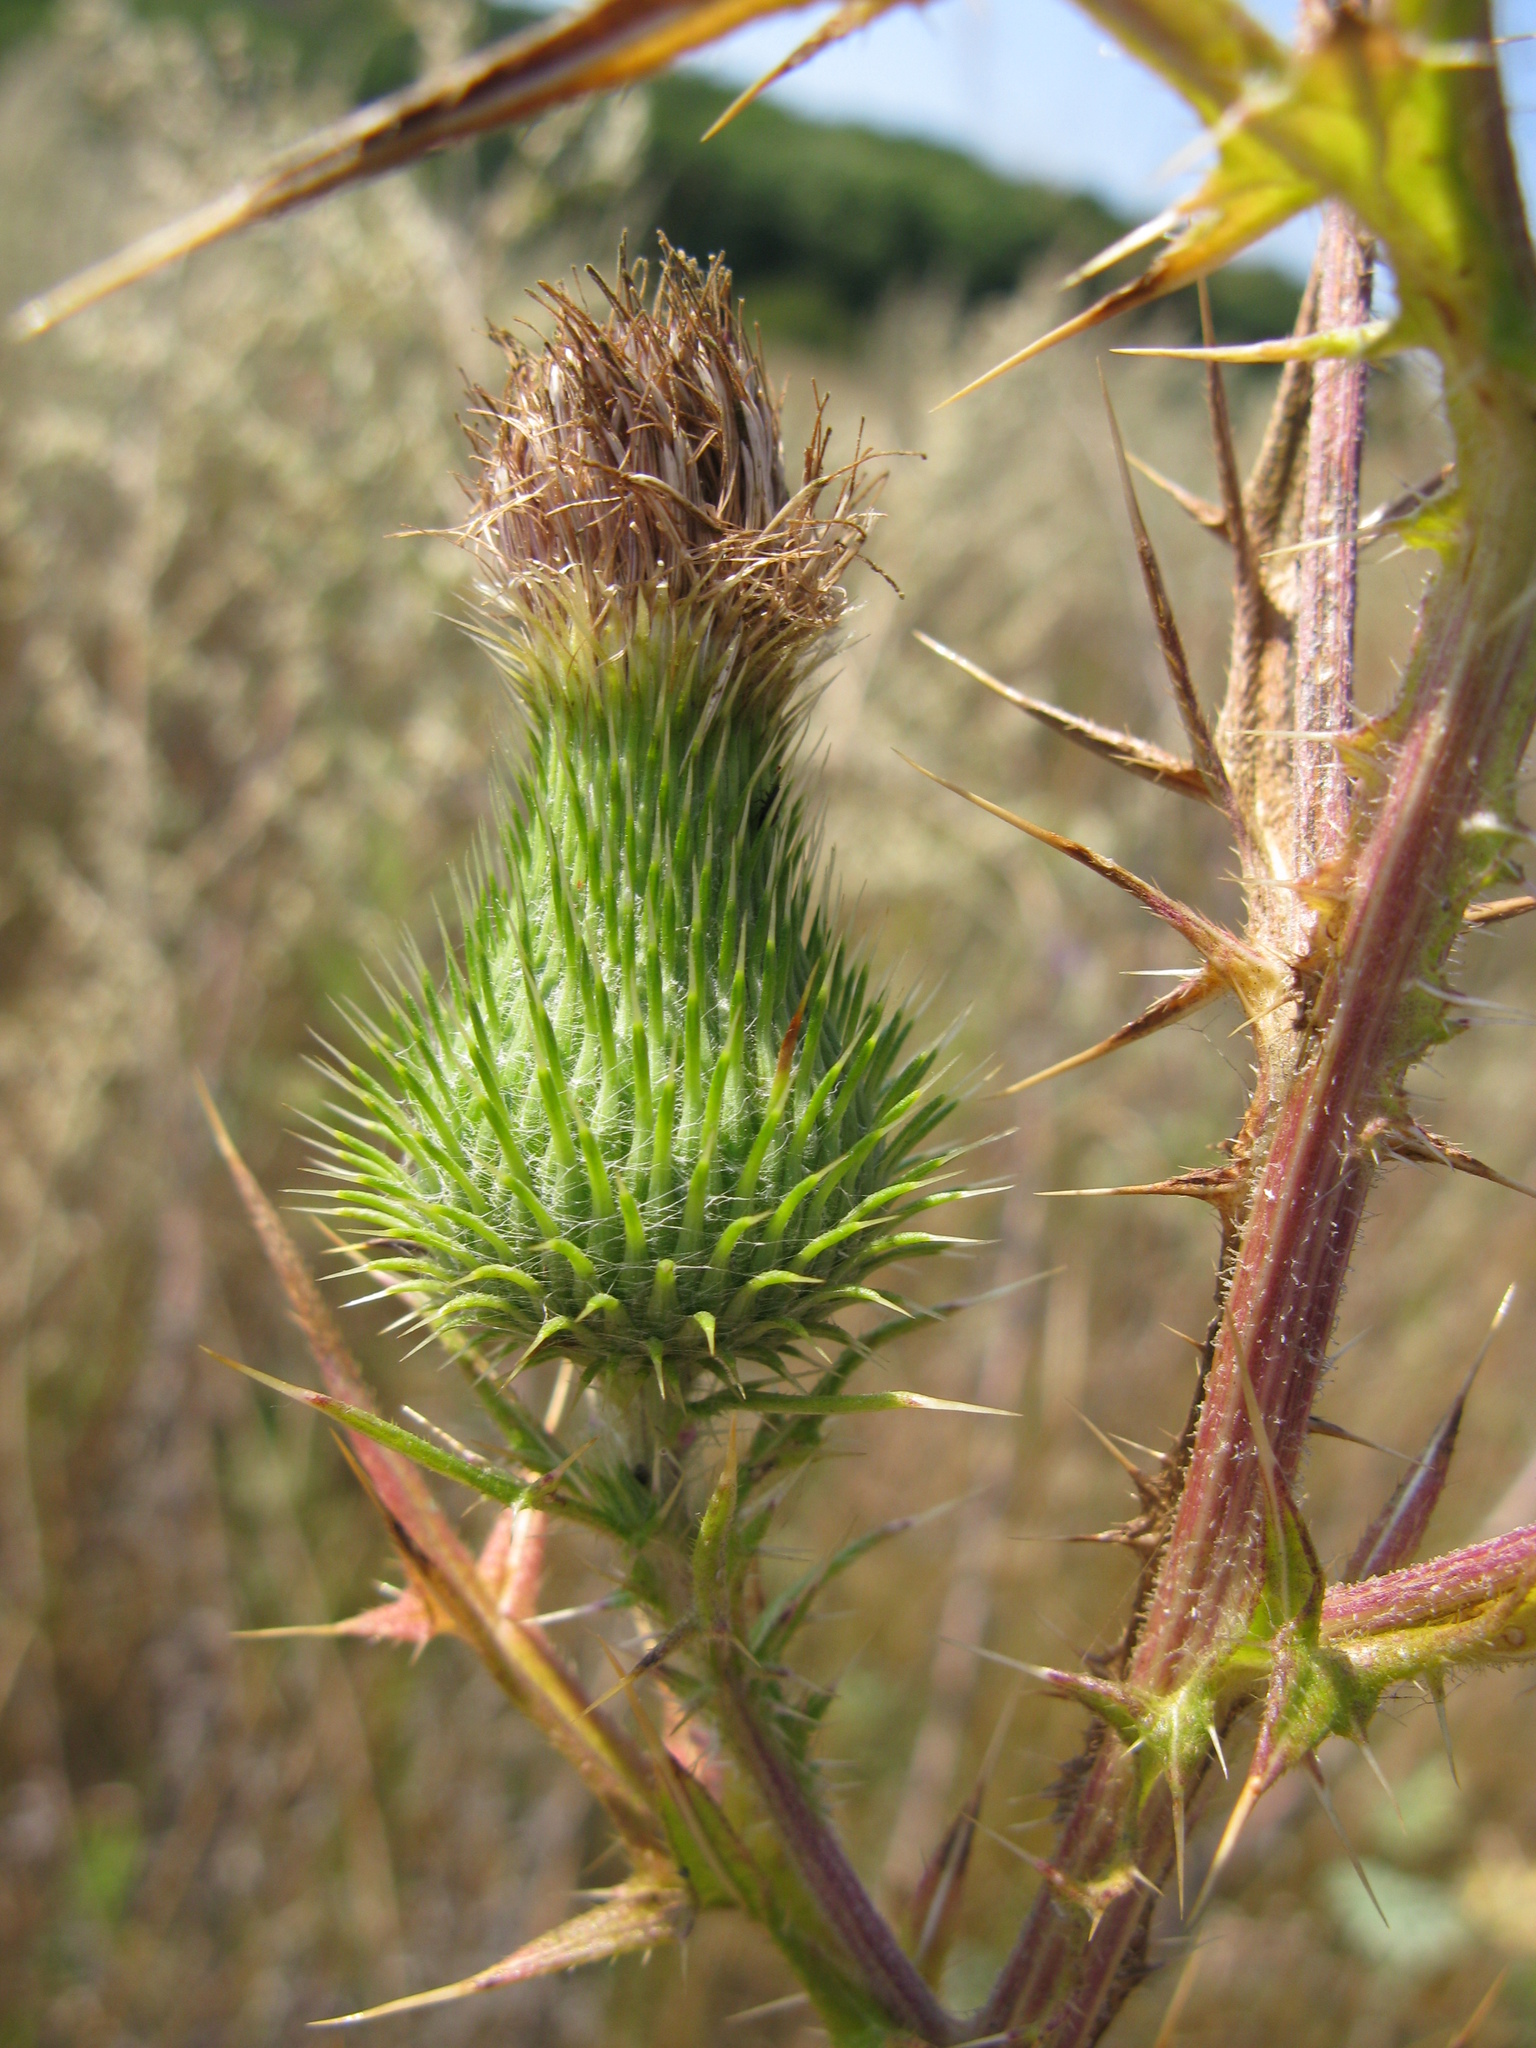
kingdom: Plantae
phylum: Tracheophyta
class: Magnoliopsida
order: Asterales
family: Asteraceae
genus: Cirsium
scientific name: Cirsium vulgare
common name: Bull thistle
